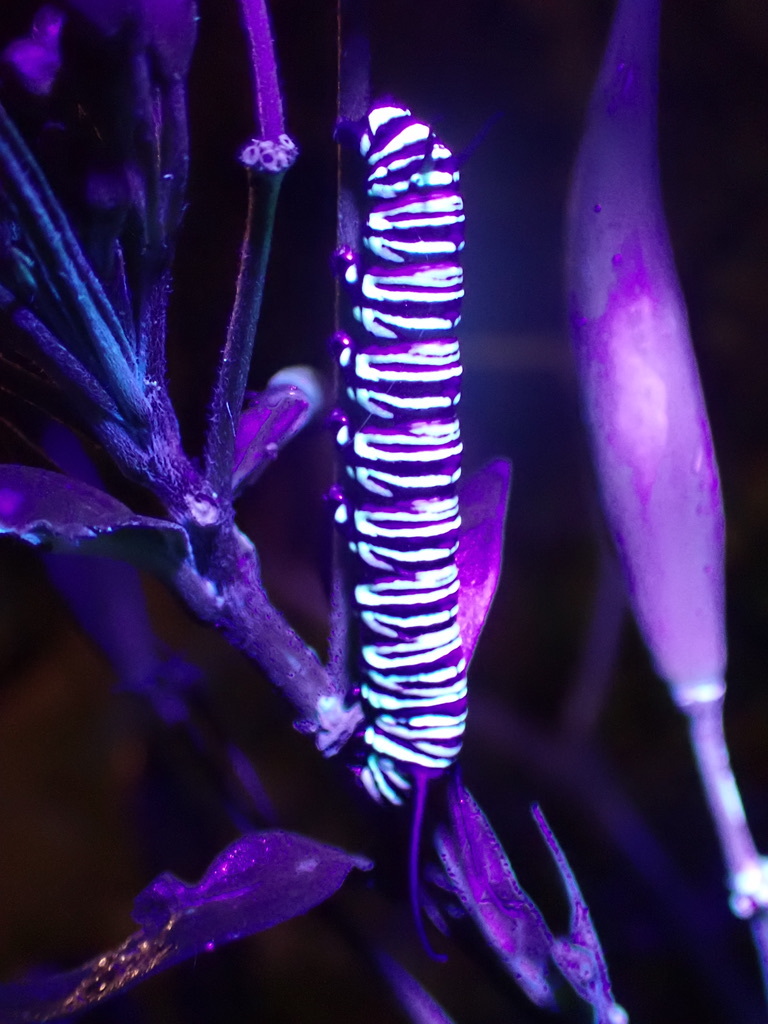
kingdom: Animalia
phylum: Arthropoda
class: Insecta
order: Lepidoptera
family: Nymphalidae
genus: Danaus
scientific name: Danaus plexippus
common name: Monarch
